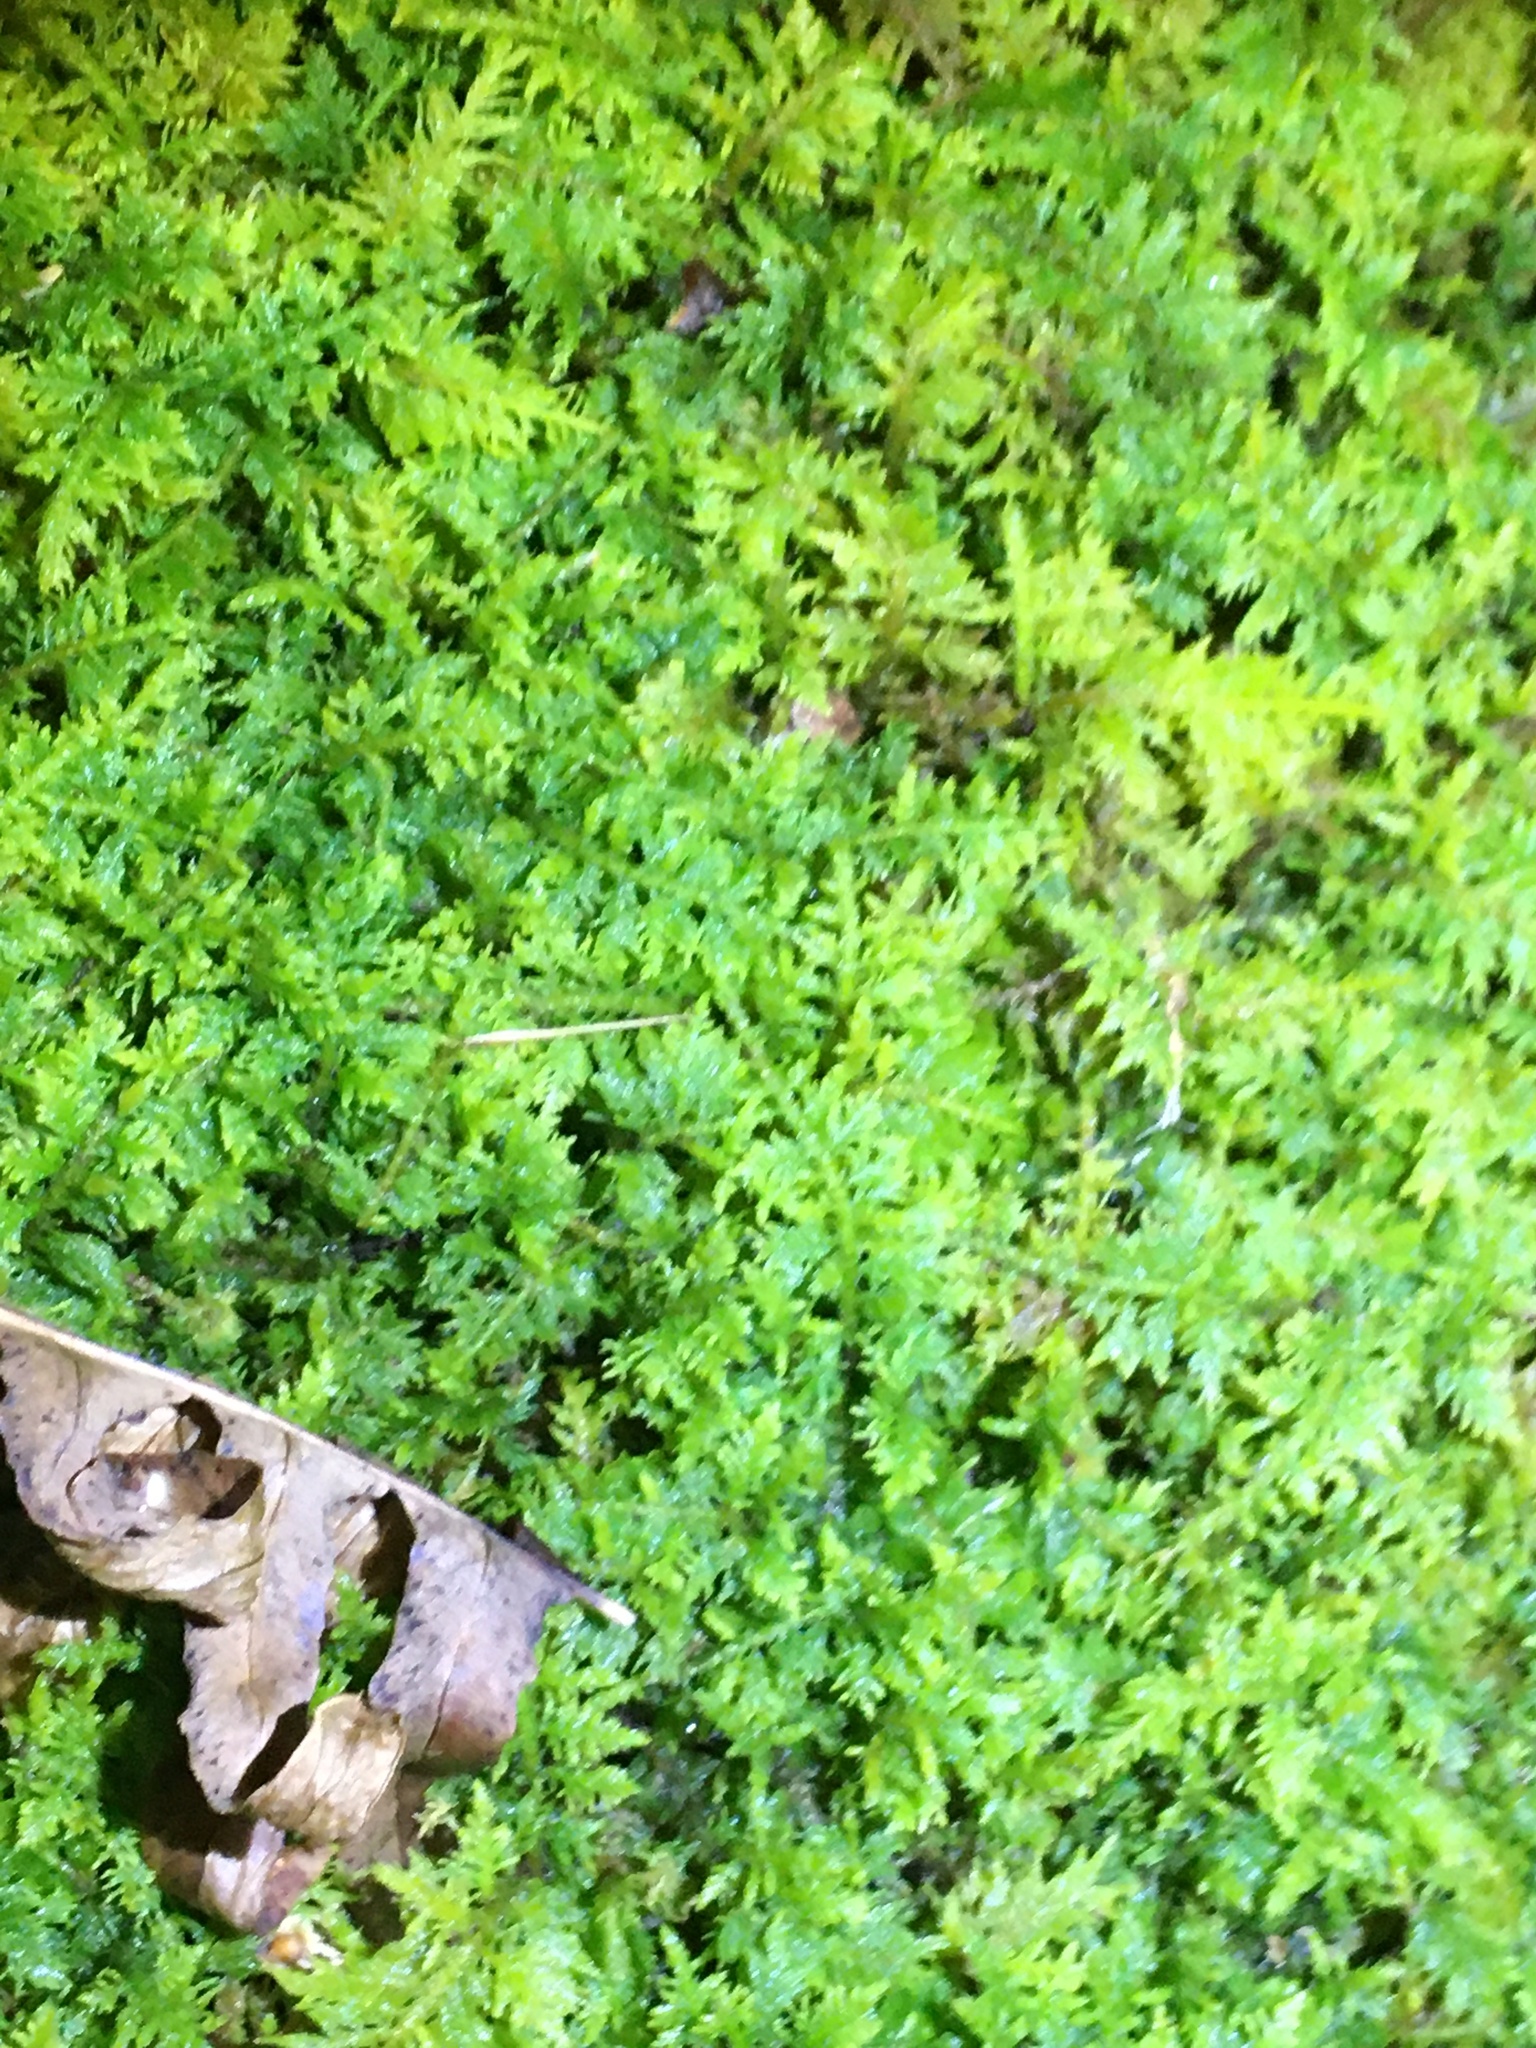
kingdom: Plantae
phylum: Bryophyta
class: Bryopsida
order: Hypnales
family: Thuidiaceae
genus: Thuidium
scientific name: Thuidium delicatulum
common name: Delicate fern moss
